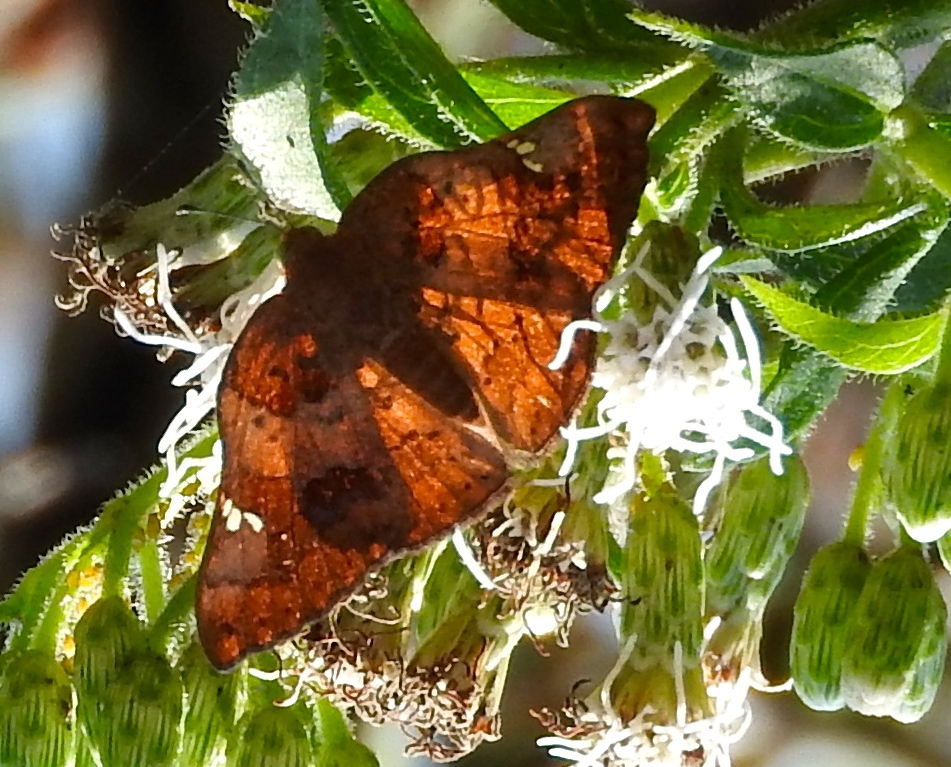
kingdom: Animalia
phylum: Arthropoda
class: Insecta
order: Lepidoptera
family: Riodinidae
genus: Curvie
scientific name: Curvie emesia
